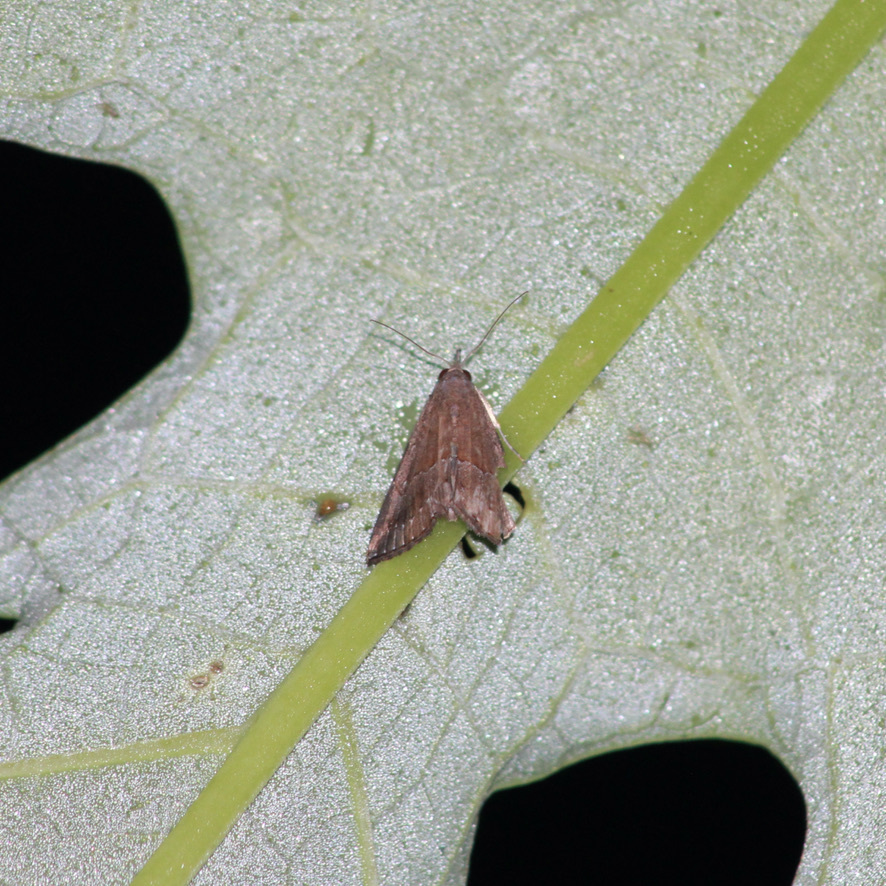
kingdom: Animalia
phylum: Arthropoda
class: Insecta
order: Lepidoptera
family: Erebidae
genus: Hypena
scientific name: Hypena porrectalis
